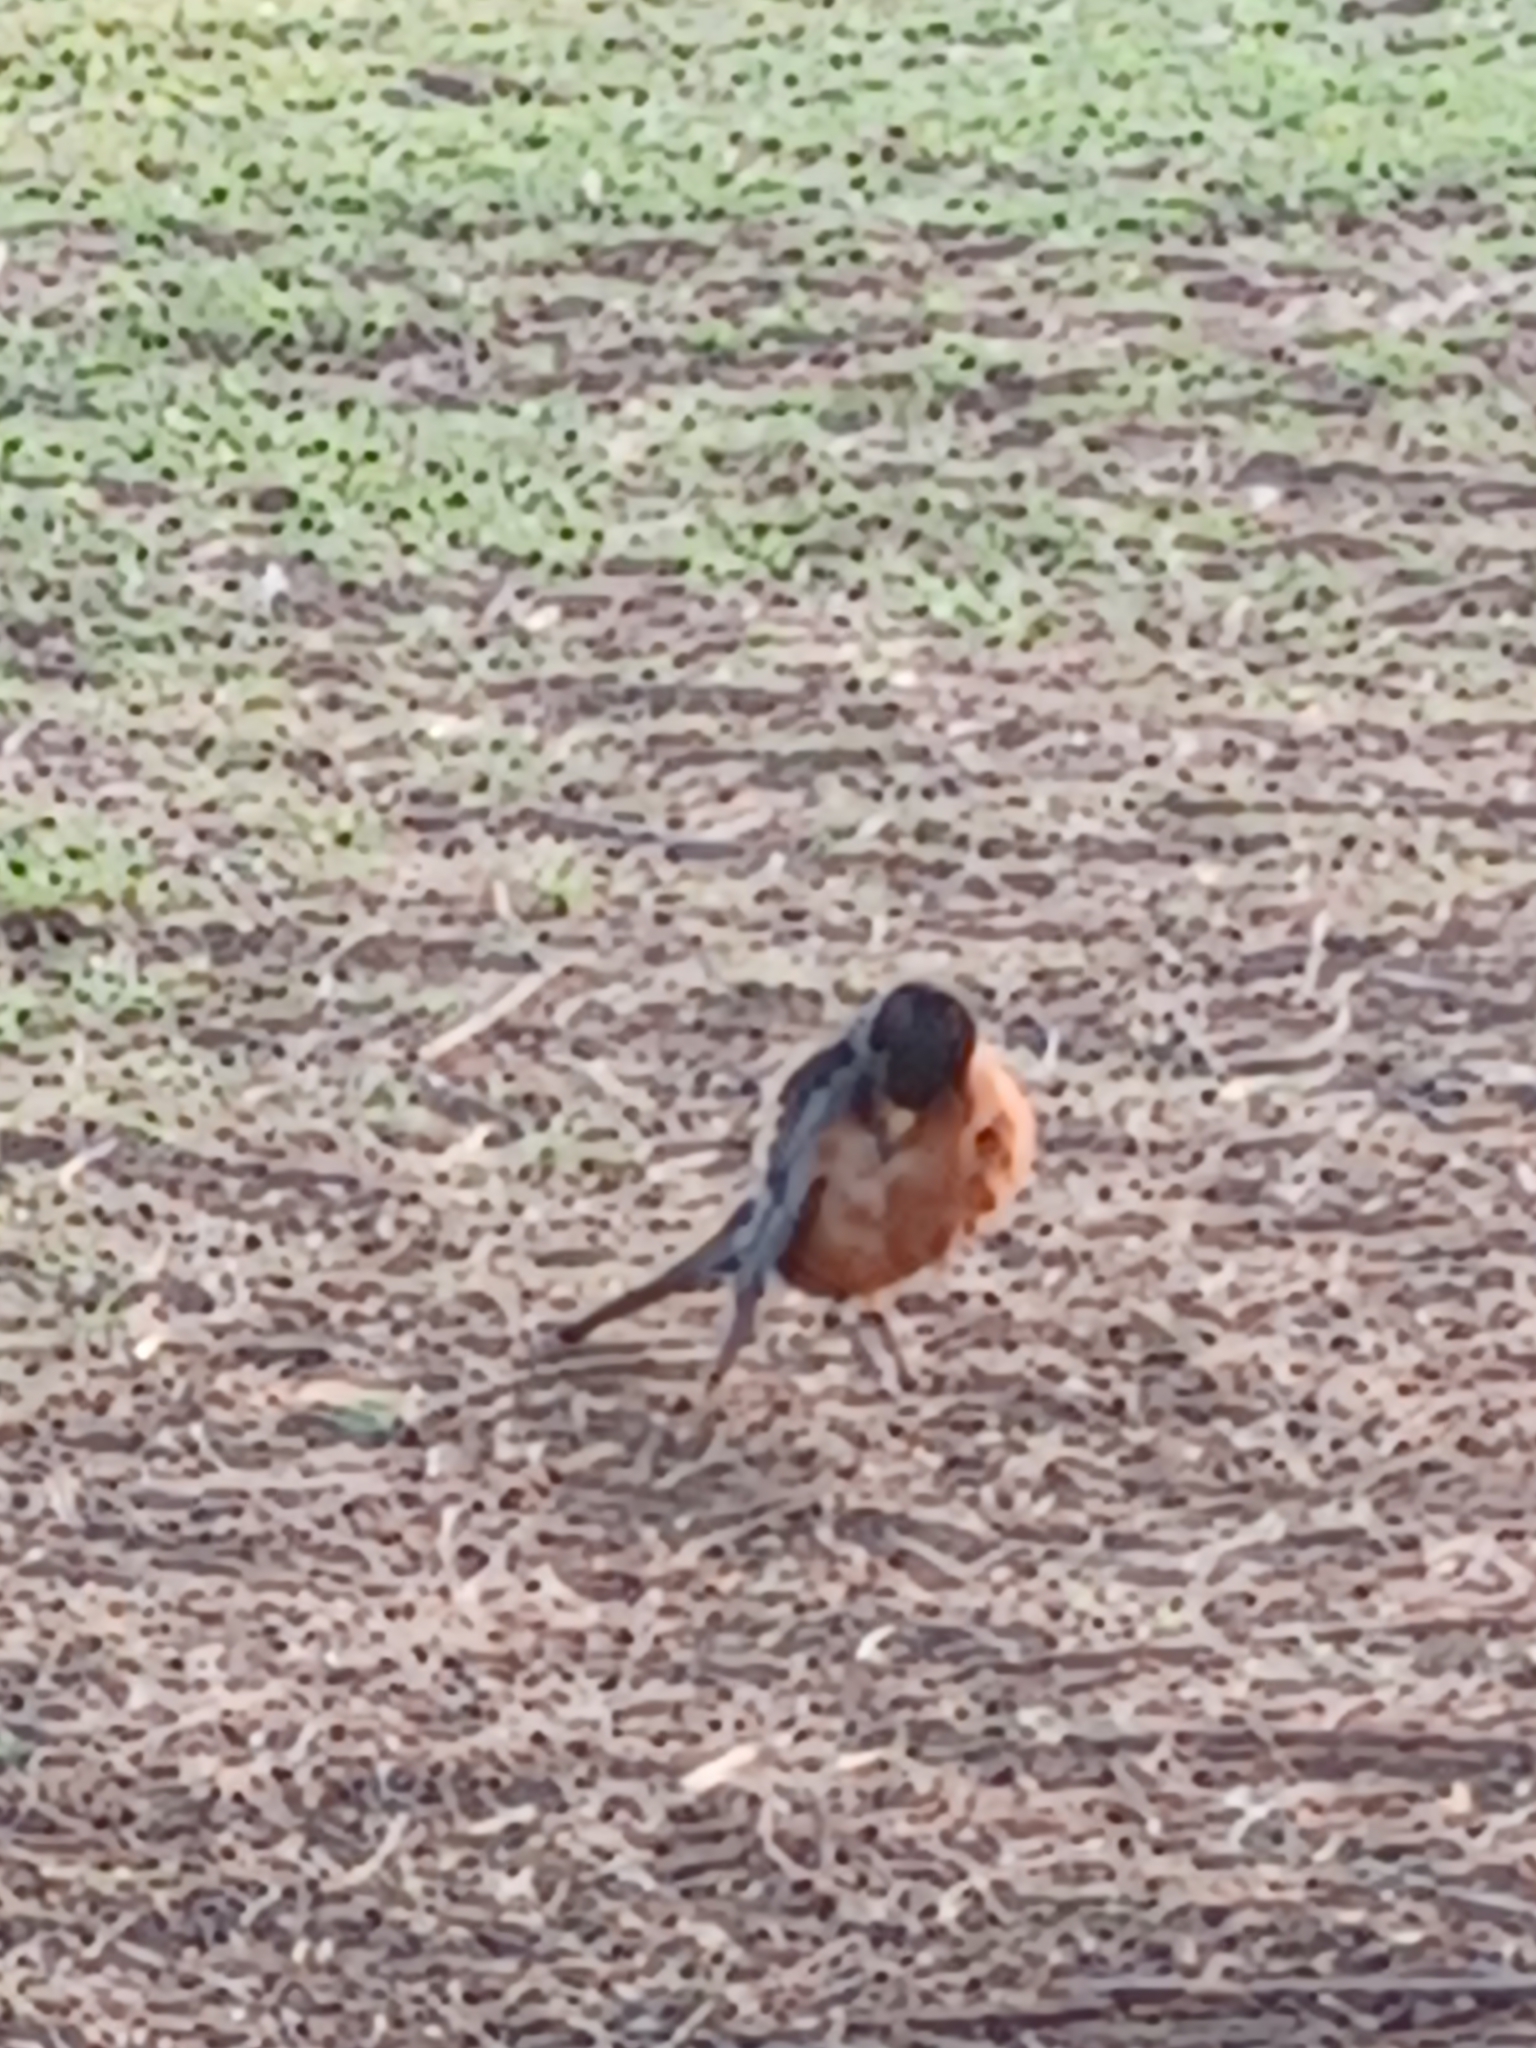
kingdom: Animalia
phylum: Chordata
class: Aves
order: Passeriformes
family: Turdidae
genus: Turdus
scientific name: Turdus migratorius
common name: American robin
